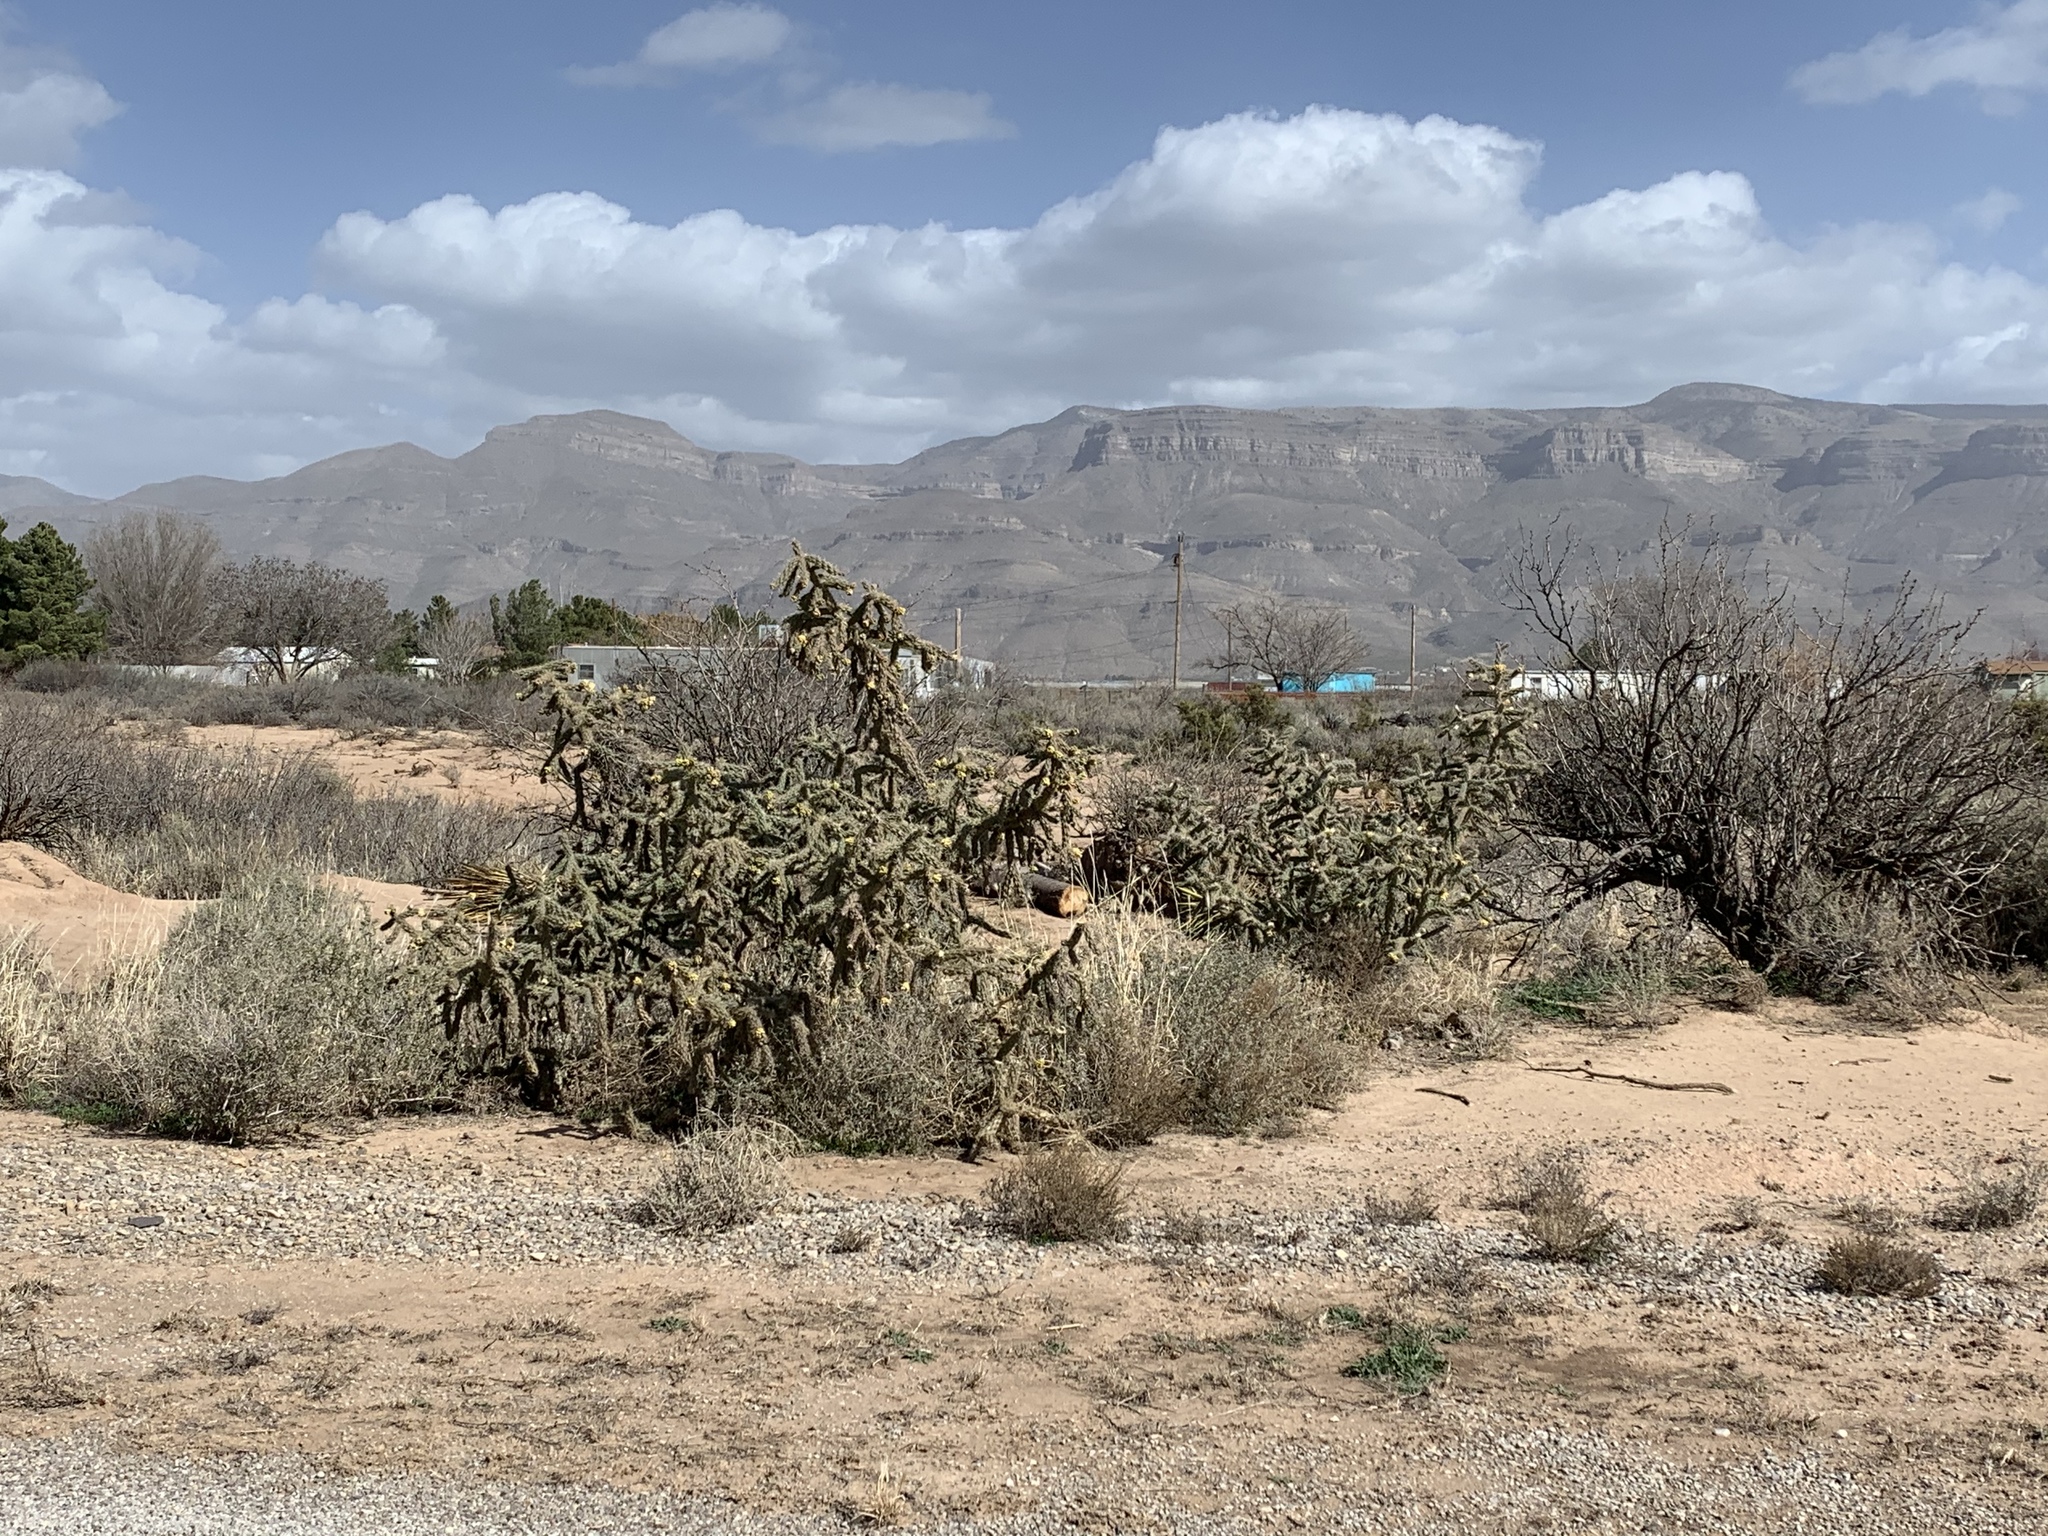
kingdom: Plantae
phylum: Tracheophyta
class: Magnoliopsida
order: Caryophyllales
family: Cactaceae
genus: Cylindropuntia
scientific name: Cylindropuntia imbricata
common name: Candelabrum cactus
